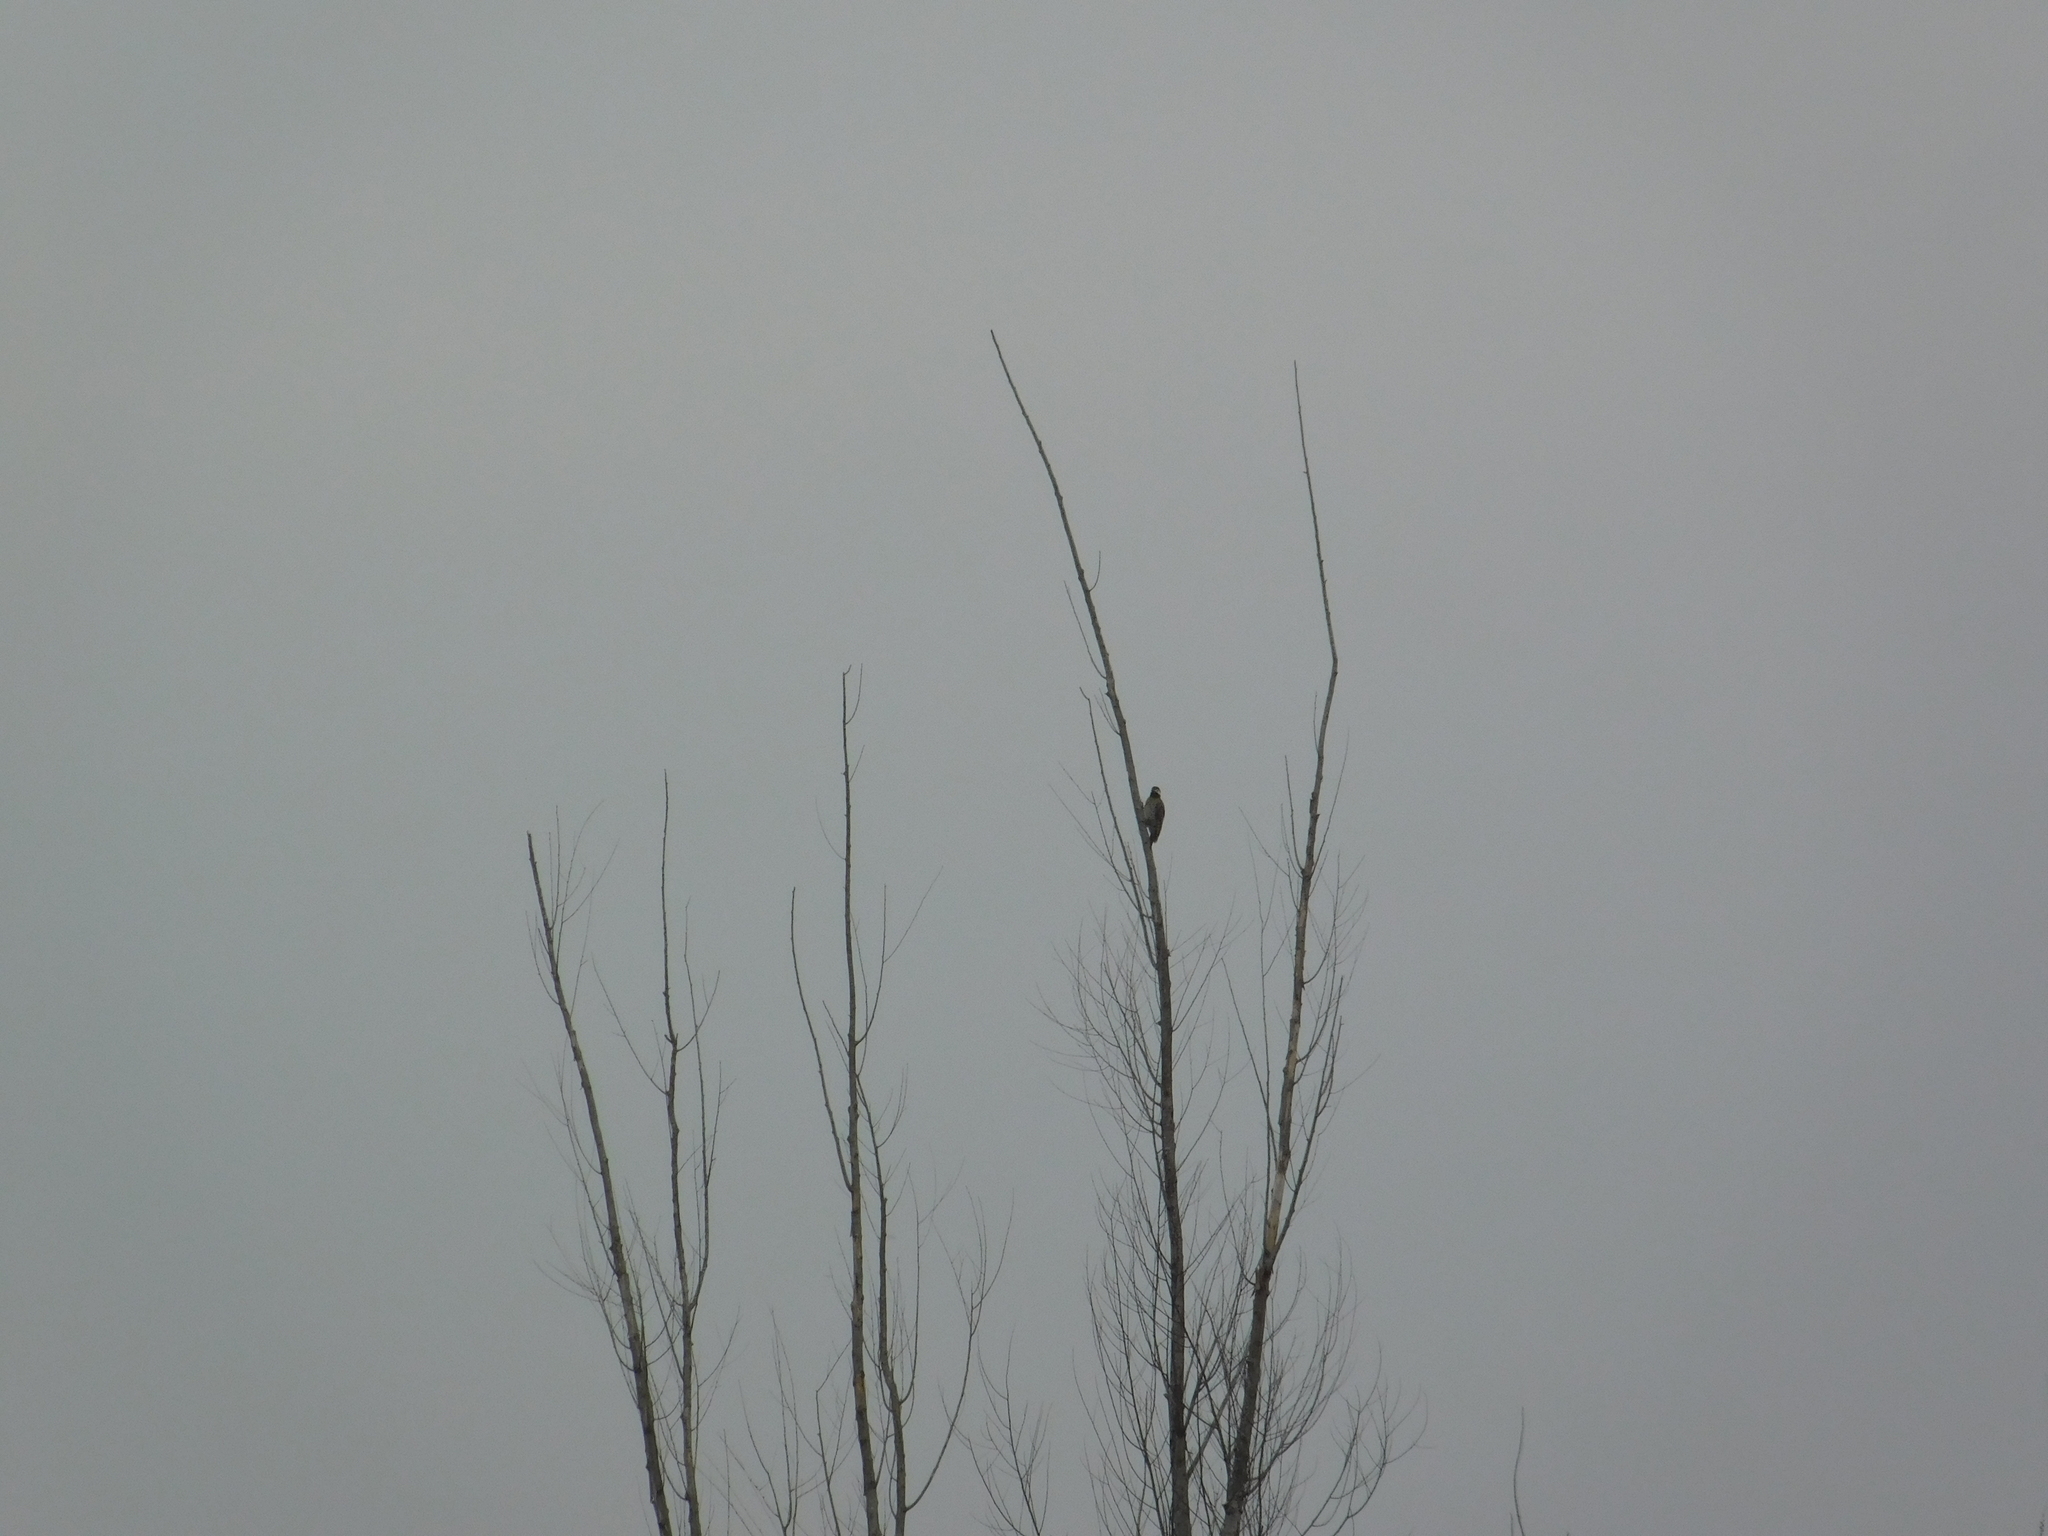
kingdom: Animalia
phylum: Chordata
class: Aves
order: Piciformes
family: Picidae
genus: Colaptes
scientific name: Colaptes melanochloros
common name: Green-barred woodpecker
